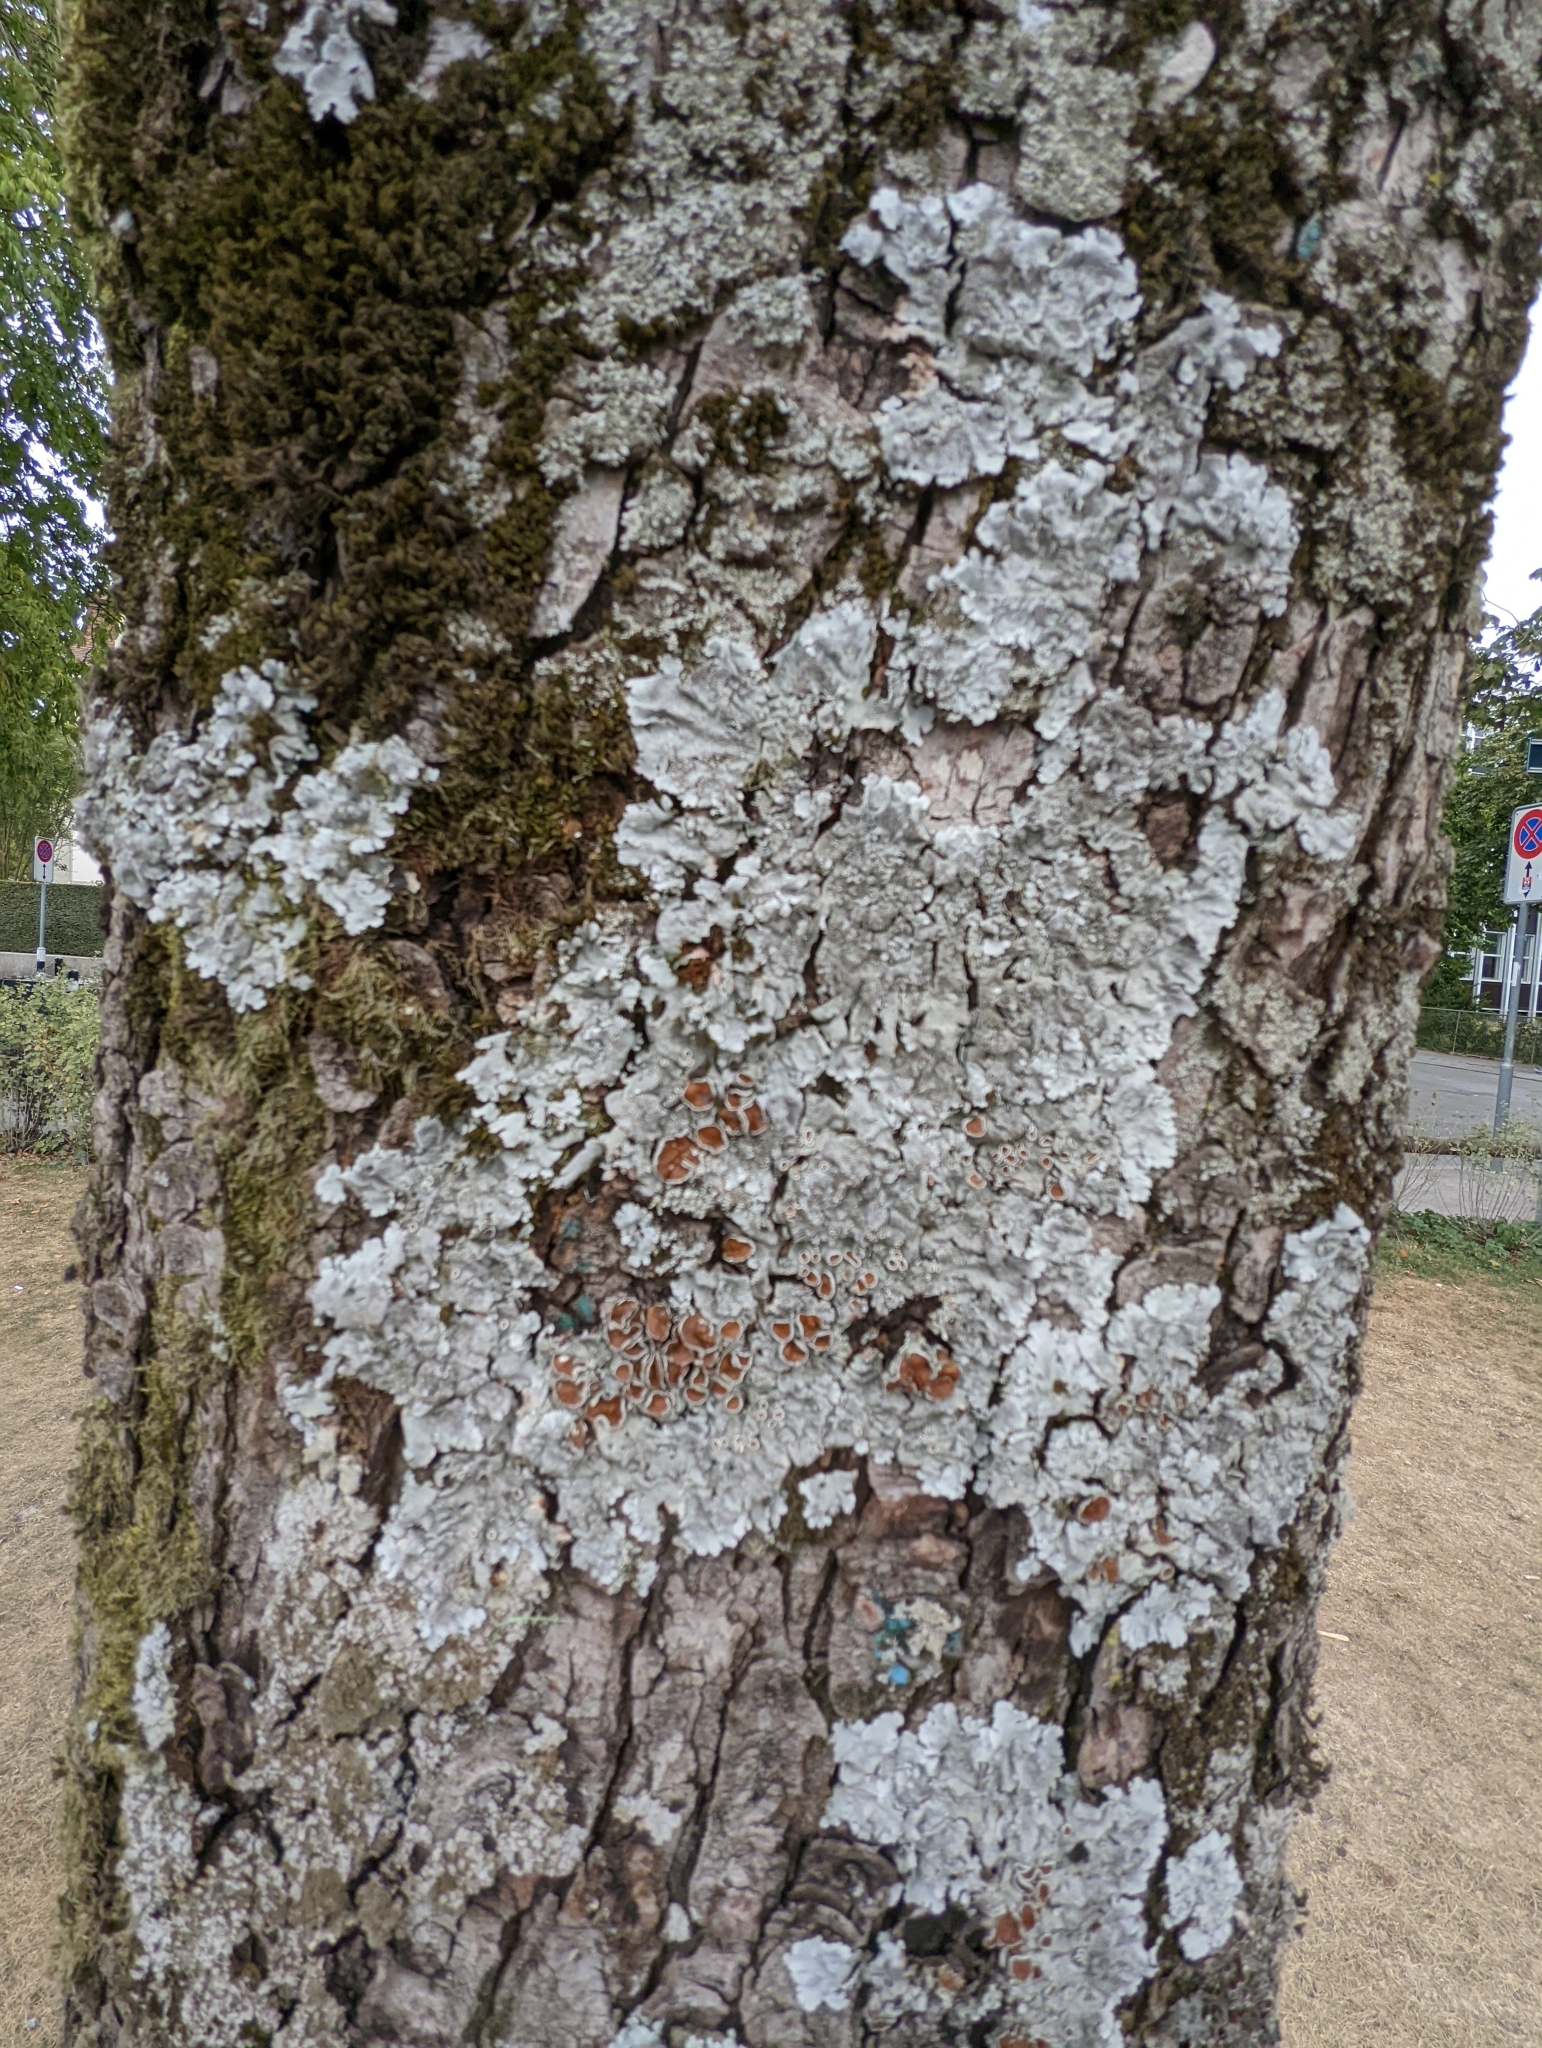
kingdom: Fungi
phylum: Ascomycota
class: Lecanoromycetes
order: Lecanorales
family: Parmeliaceae
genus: Parmelina
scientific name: Parmelina tiliacea
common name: Linden shield lichen
